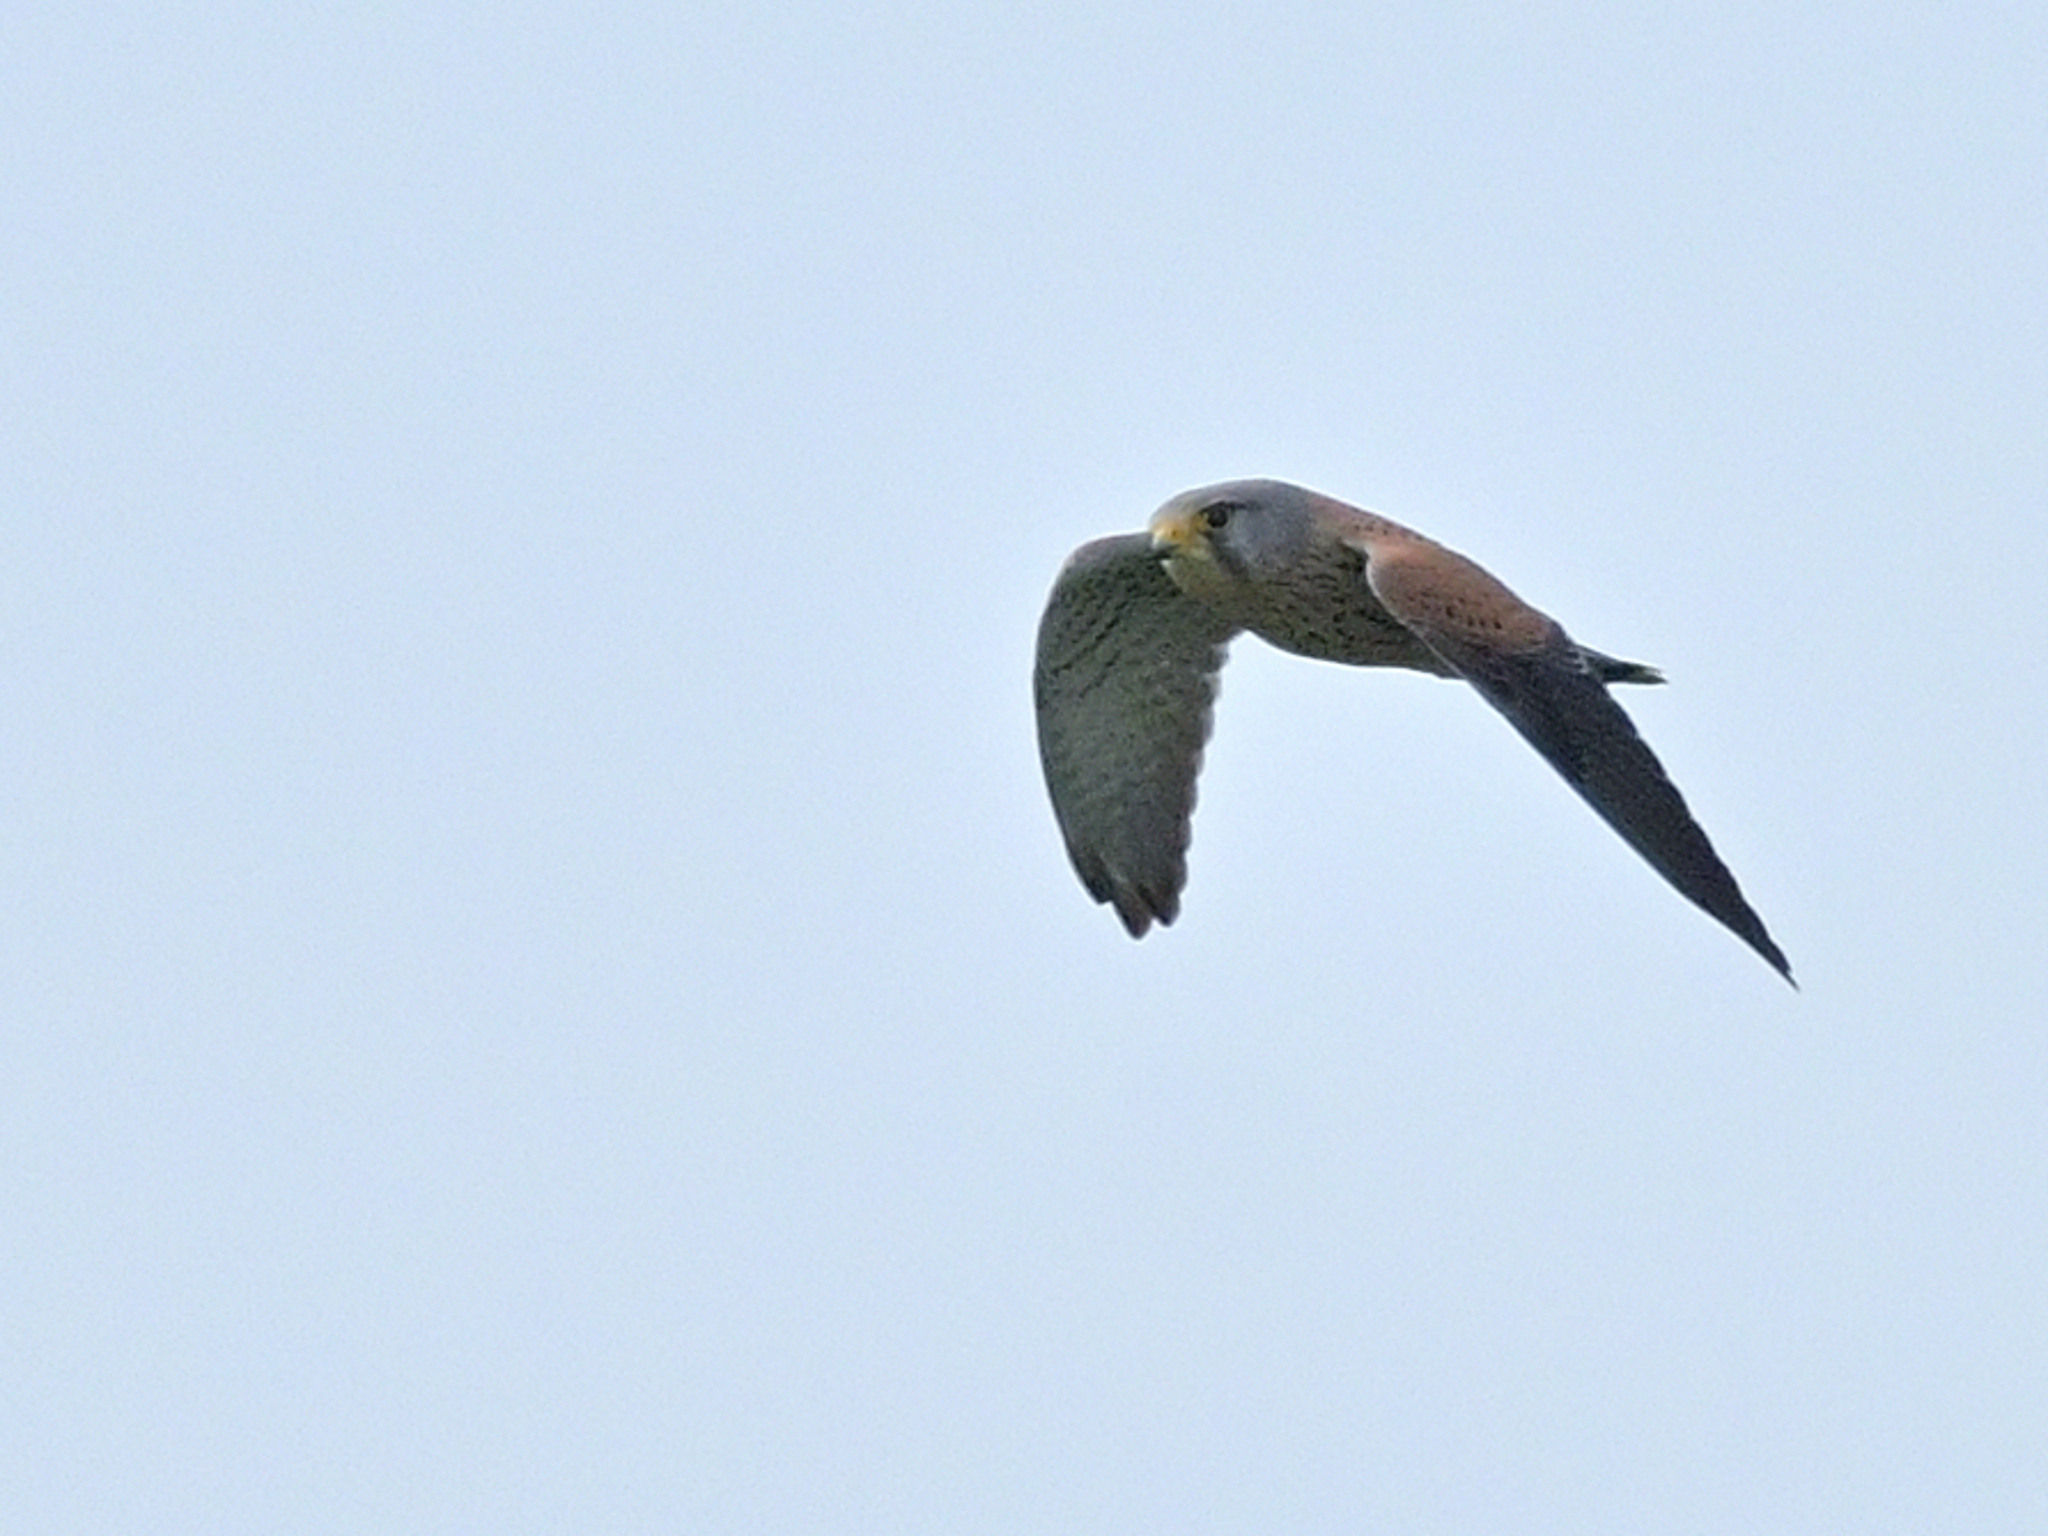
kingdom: Animalia
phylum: Chordata
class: Aves
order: Falconiformes
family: Falconidae
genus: Falco
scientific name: Falco tinnunculus
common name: Common kestrel
